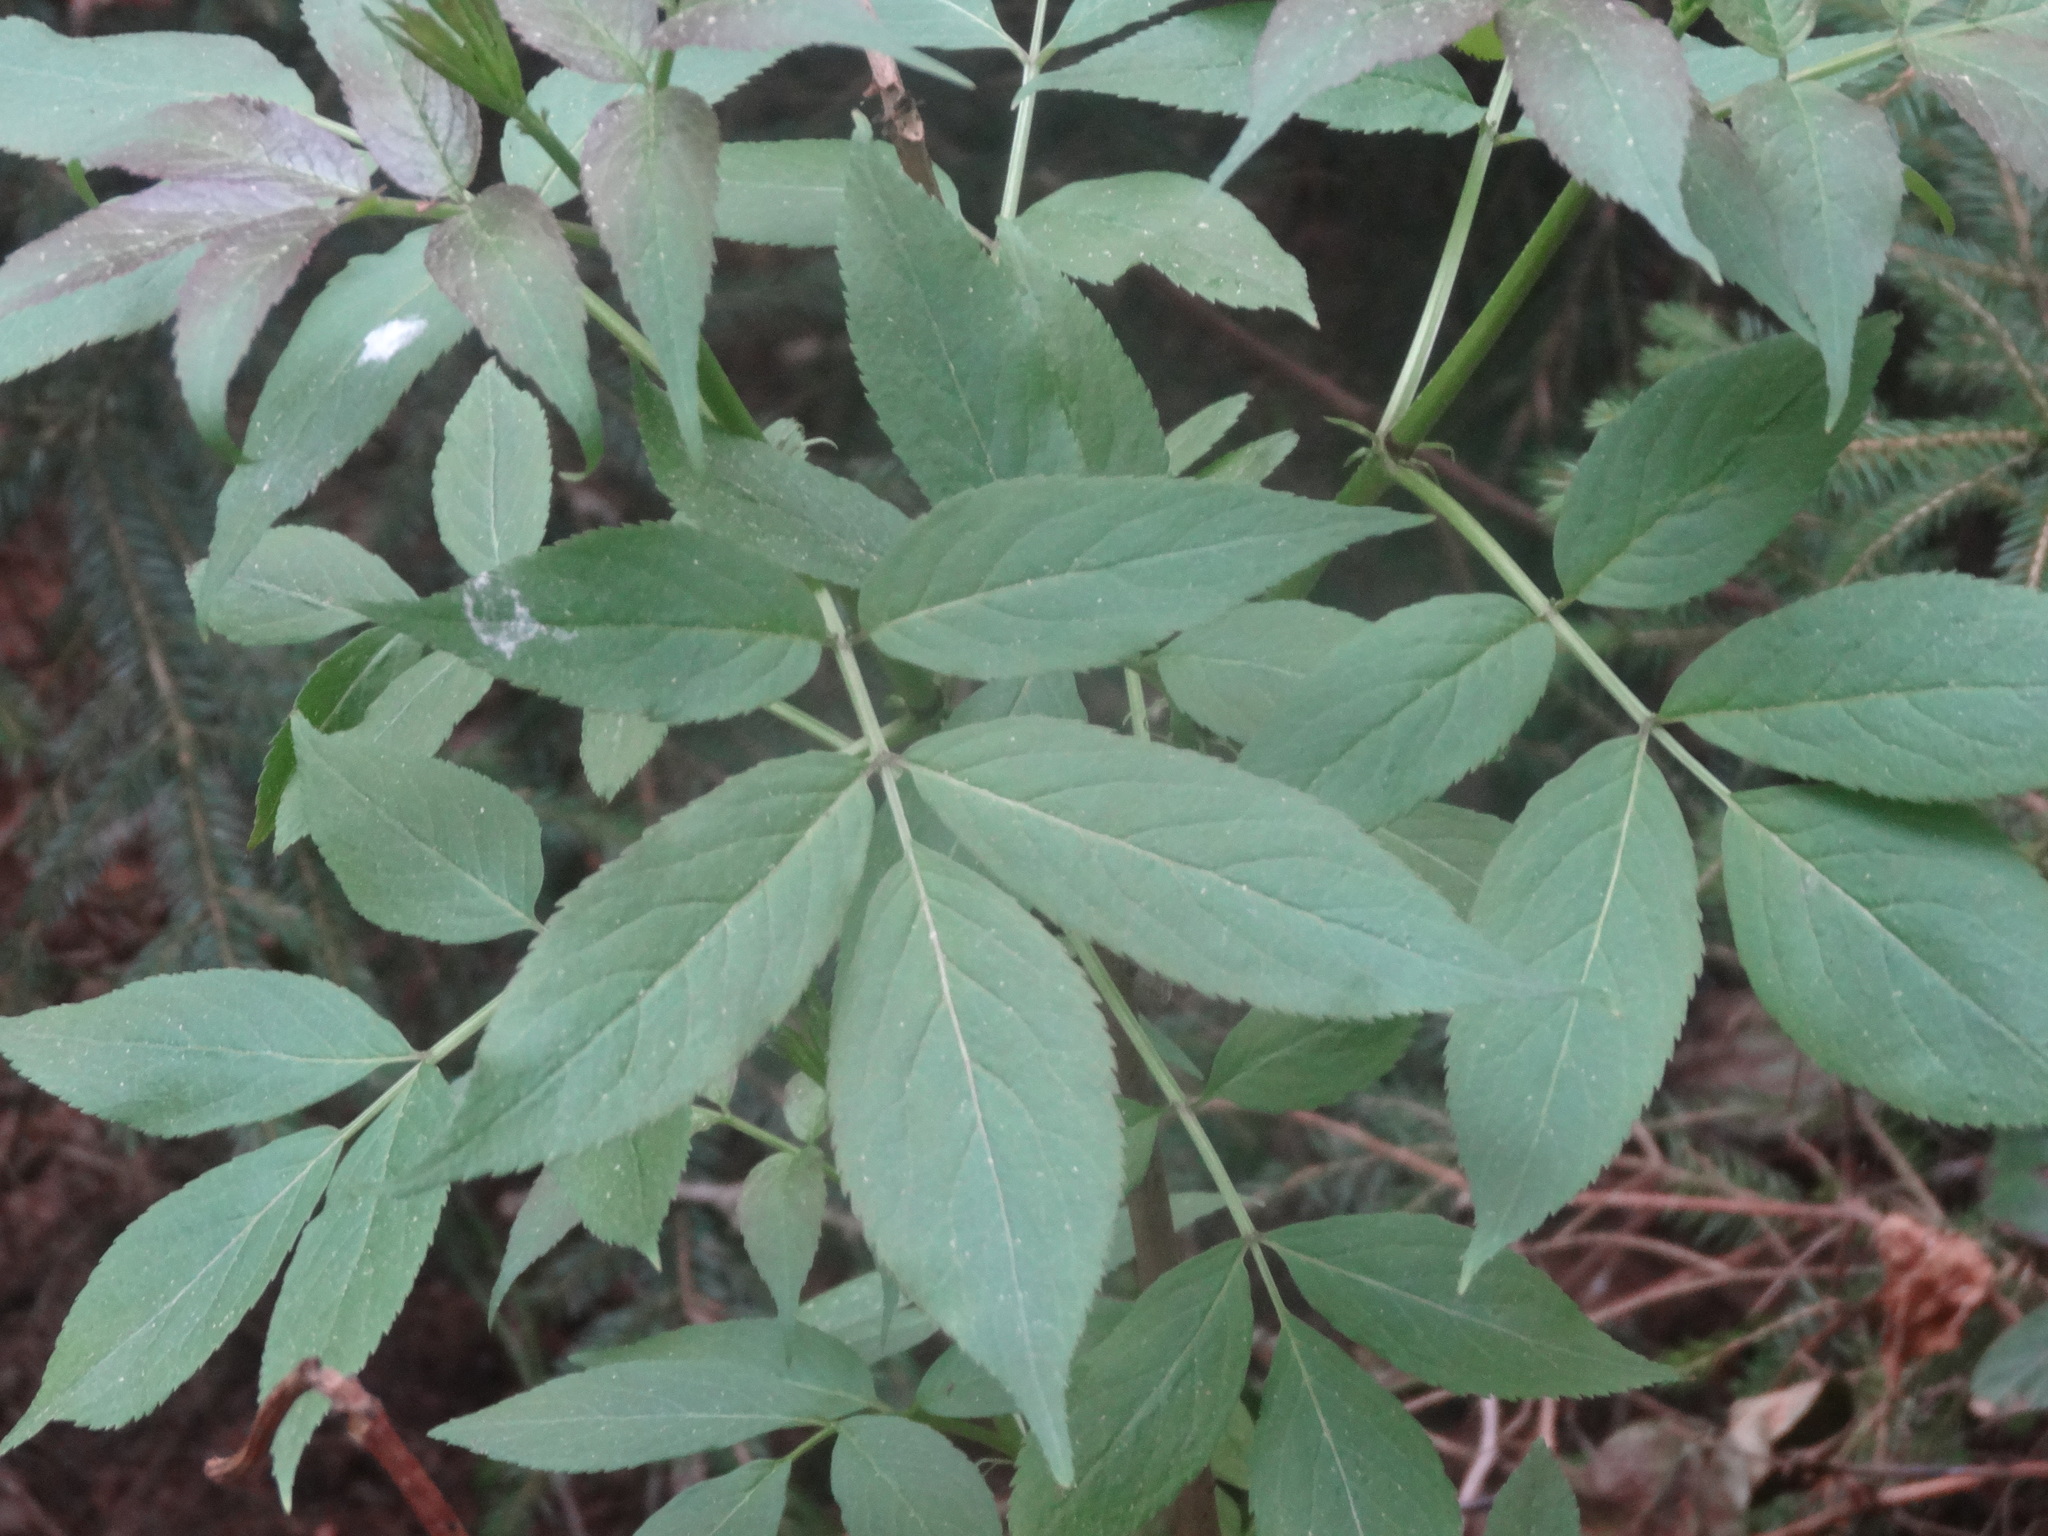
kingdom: Plantae
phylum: Tracheophyta
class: Magnoliopsida
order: Dipsacales
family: Viburnaceae
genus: Sambucus
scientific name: Sambucus nigra
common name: Elder
